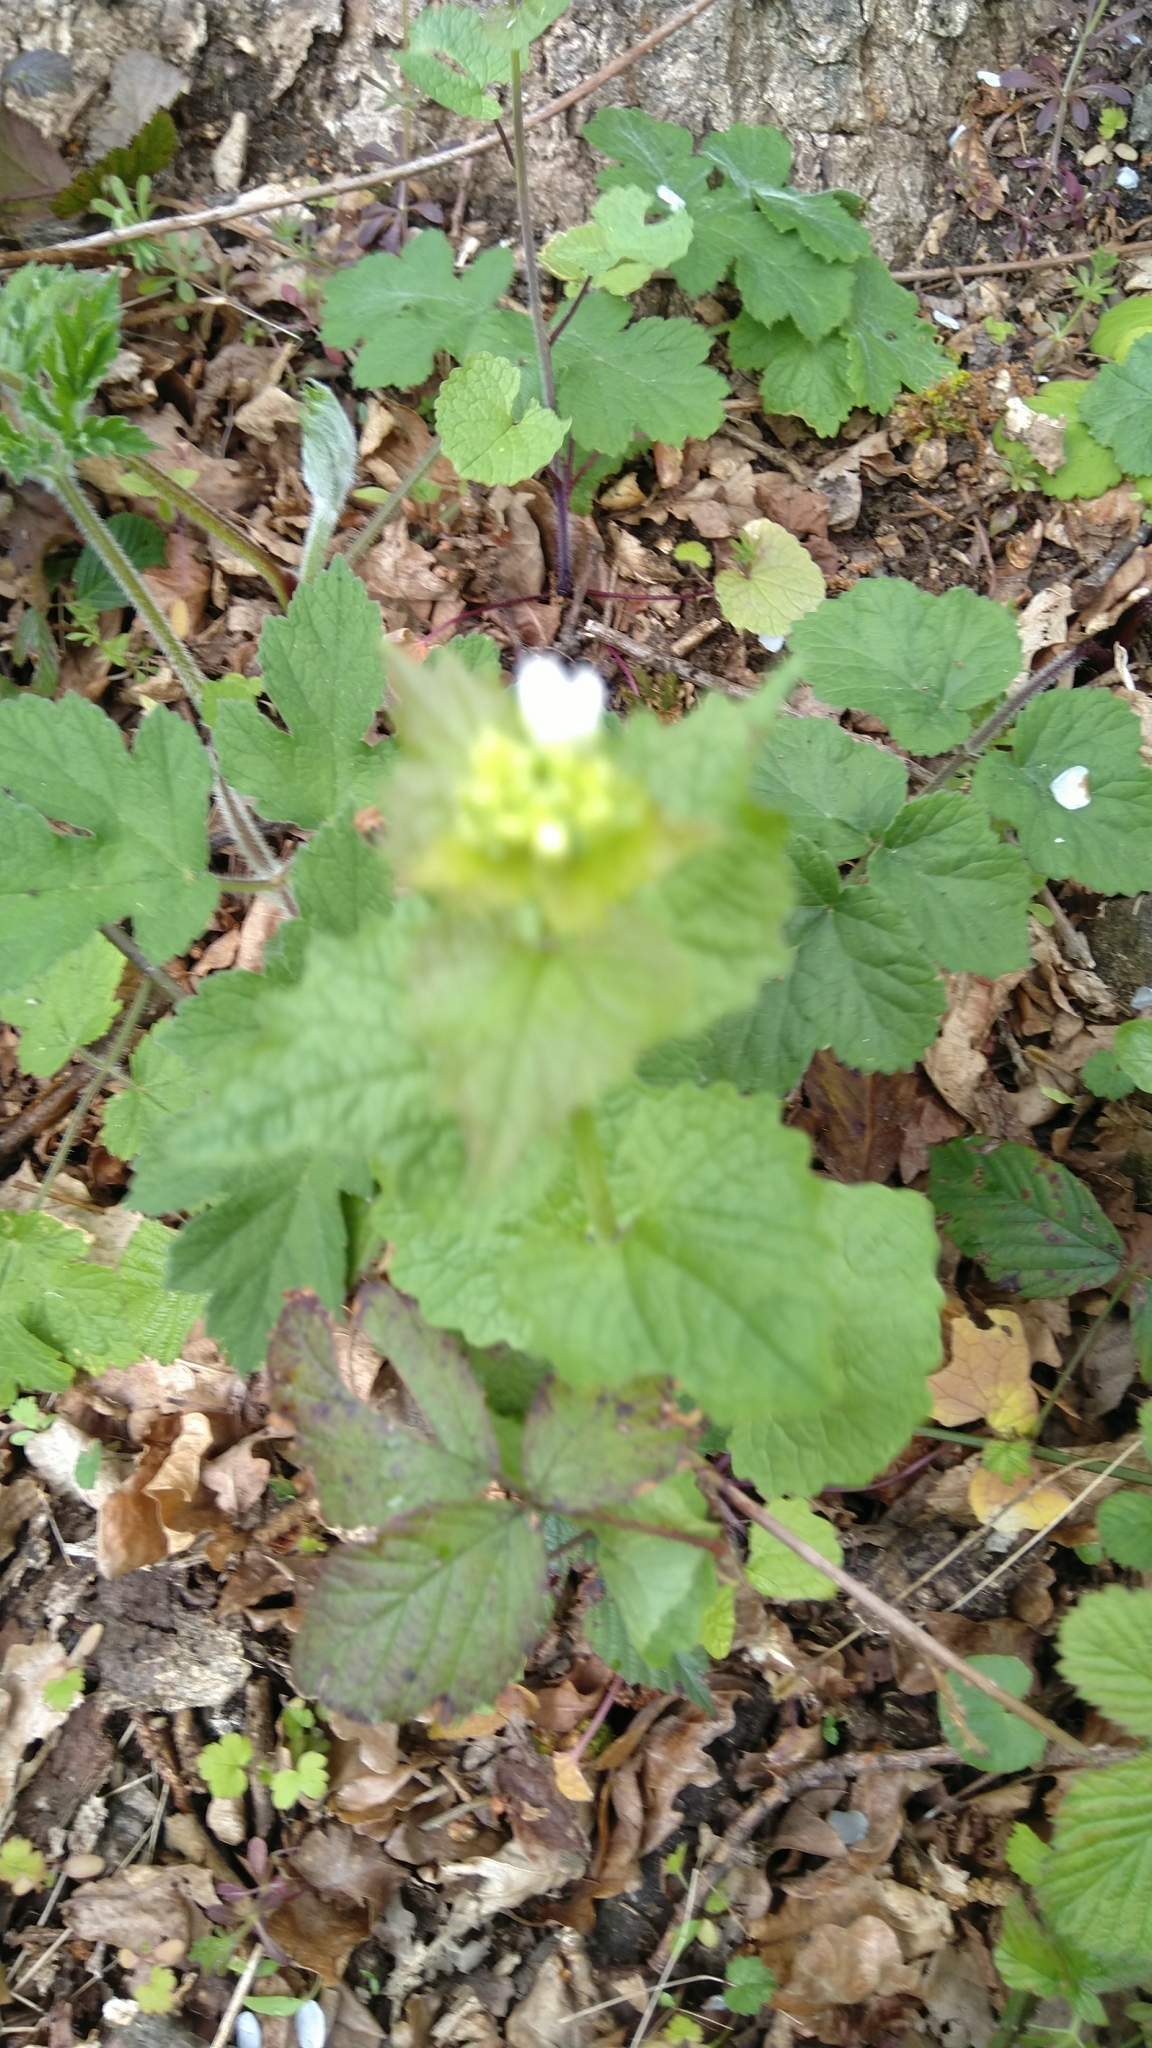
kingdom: Plantae
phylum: Tracheophyta
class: Magnoliopsida
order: Brassicales
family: Brassicaceae
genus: Alliaria
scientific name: Alliaria petiolata
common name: Garlic mustard
